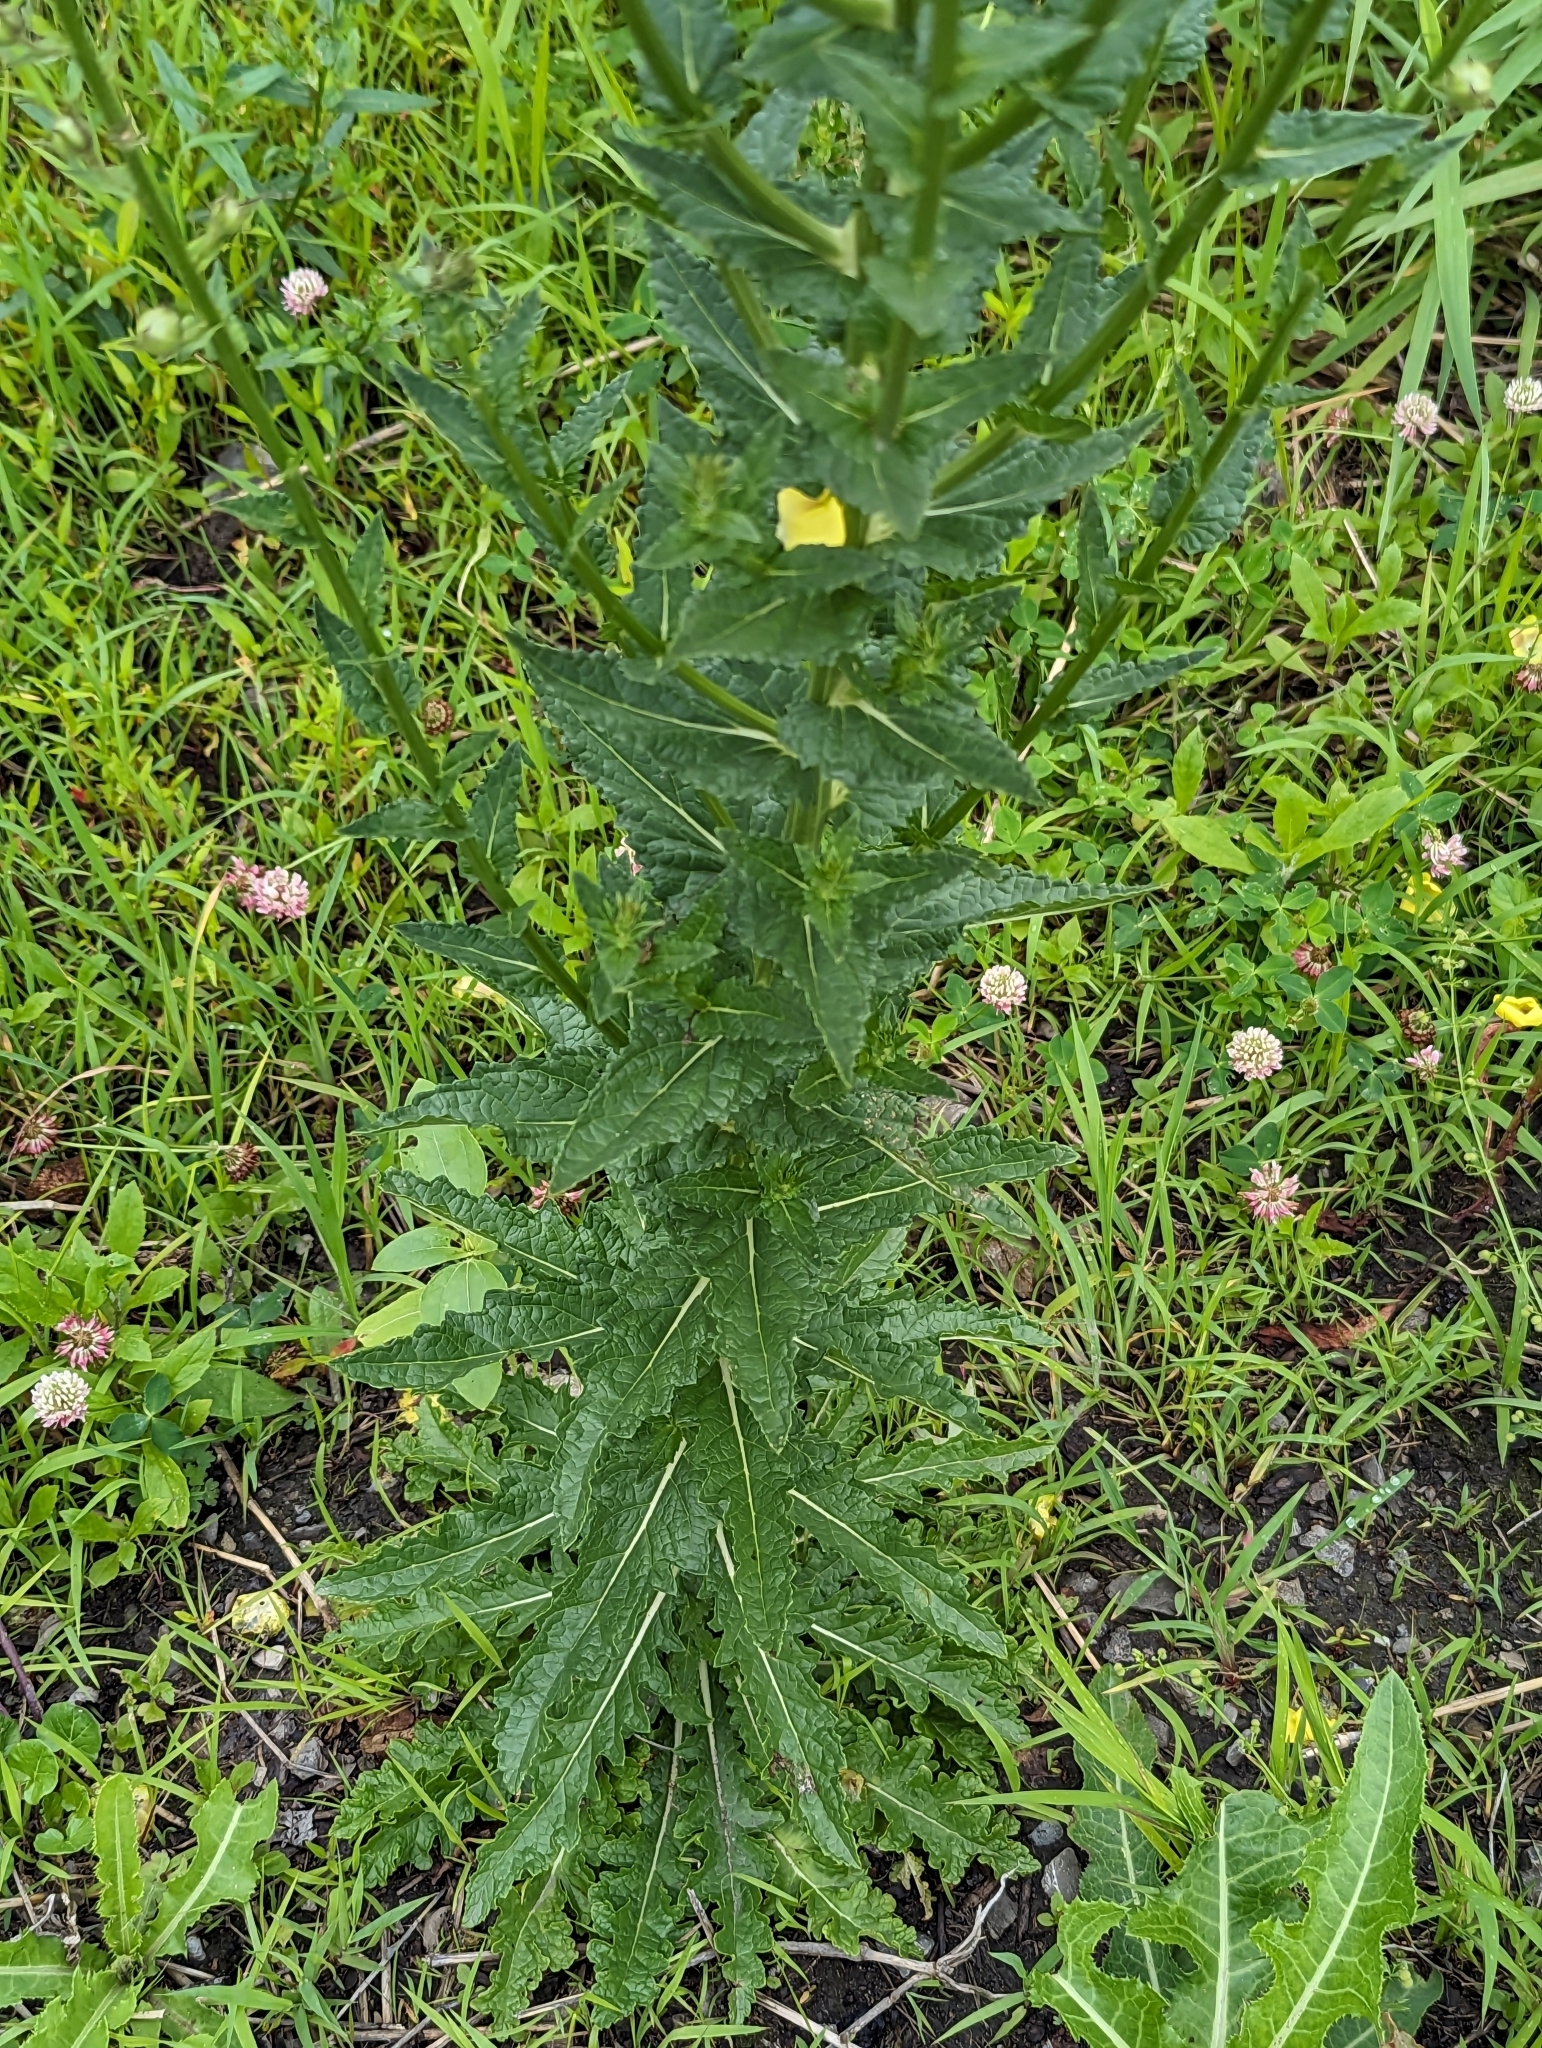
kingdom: Plantae
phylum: Tracheophyta
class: Magnoliopsida
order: Lamiales
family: Scrophulariaceae
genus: Verbascum
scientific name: Verbascum blattaria
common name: Moth mullein
